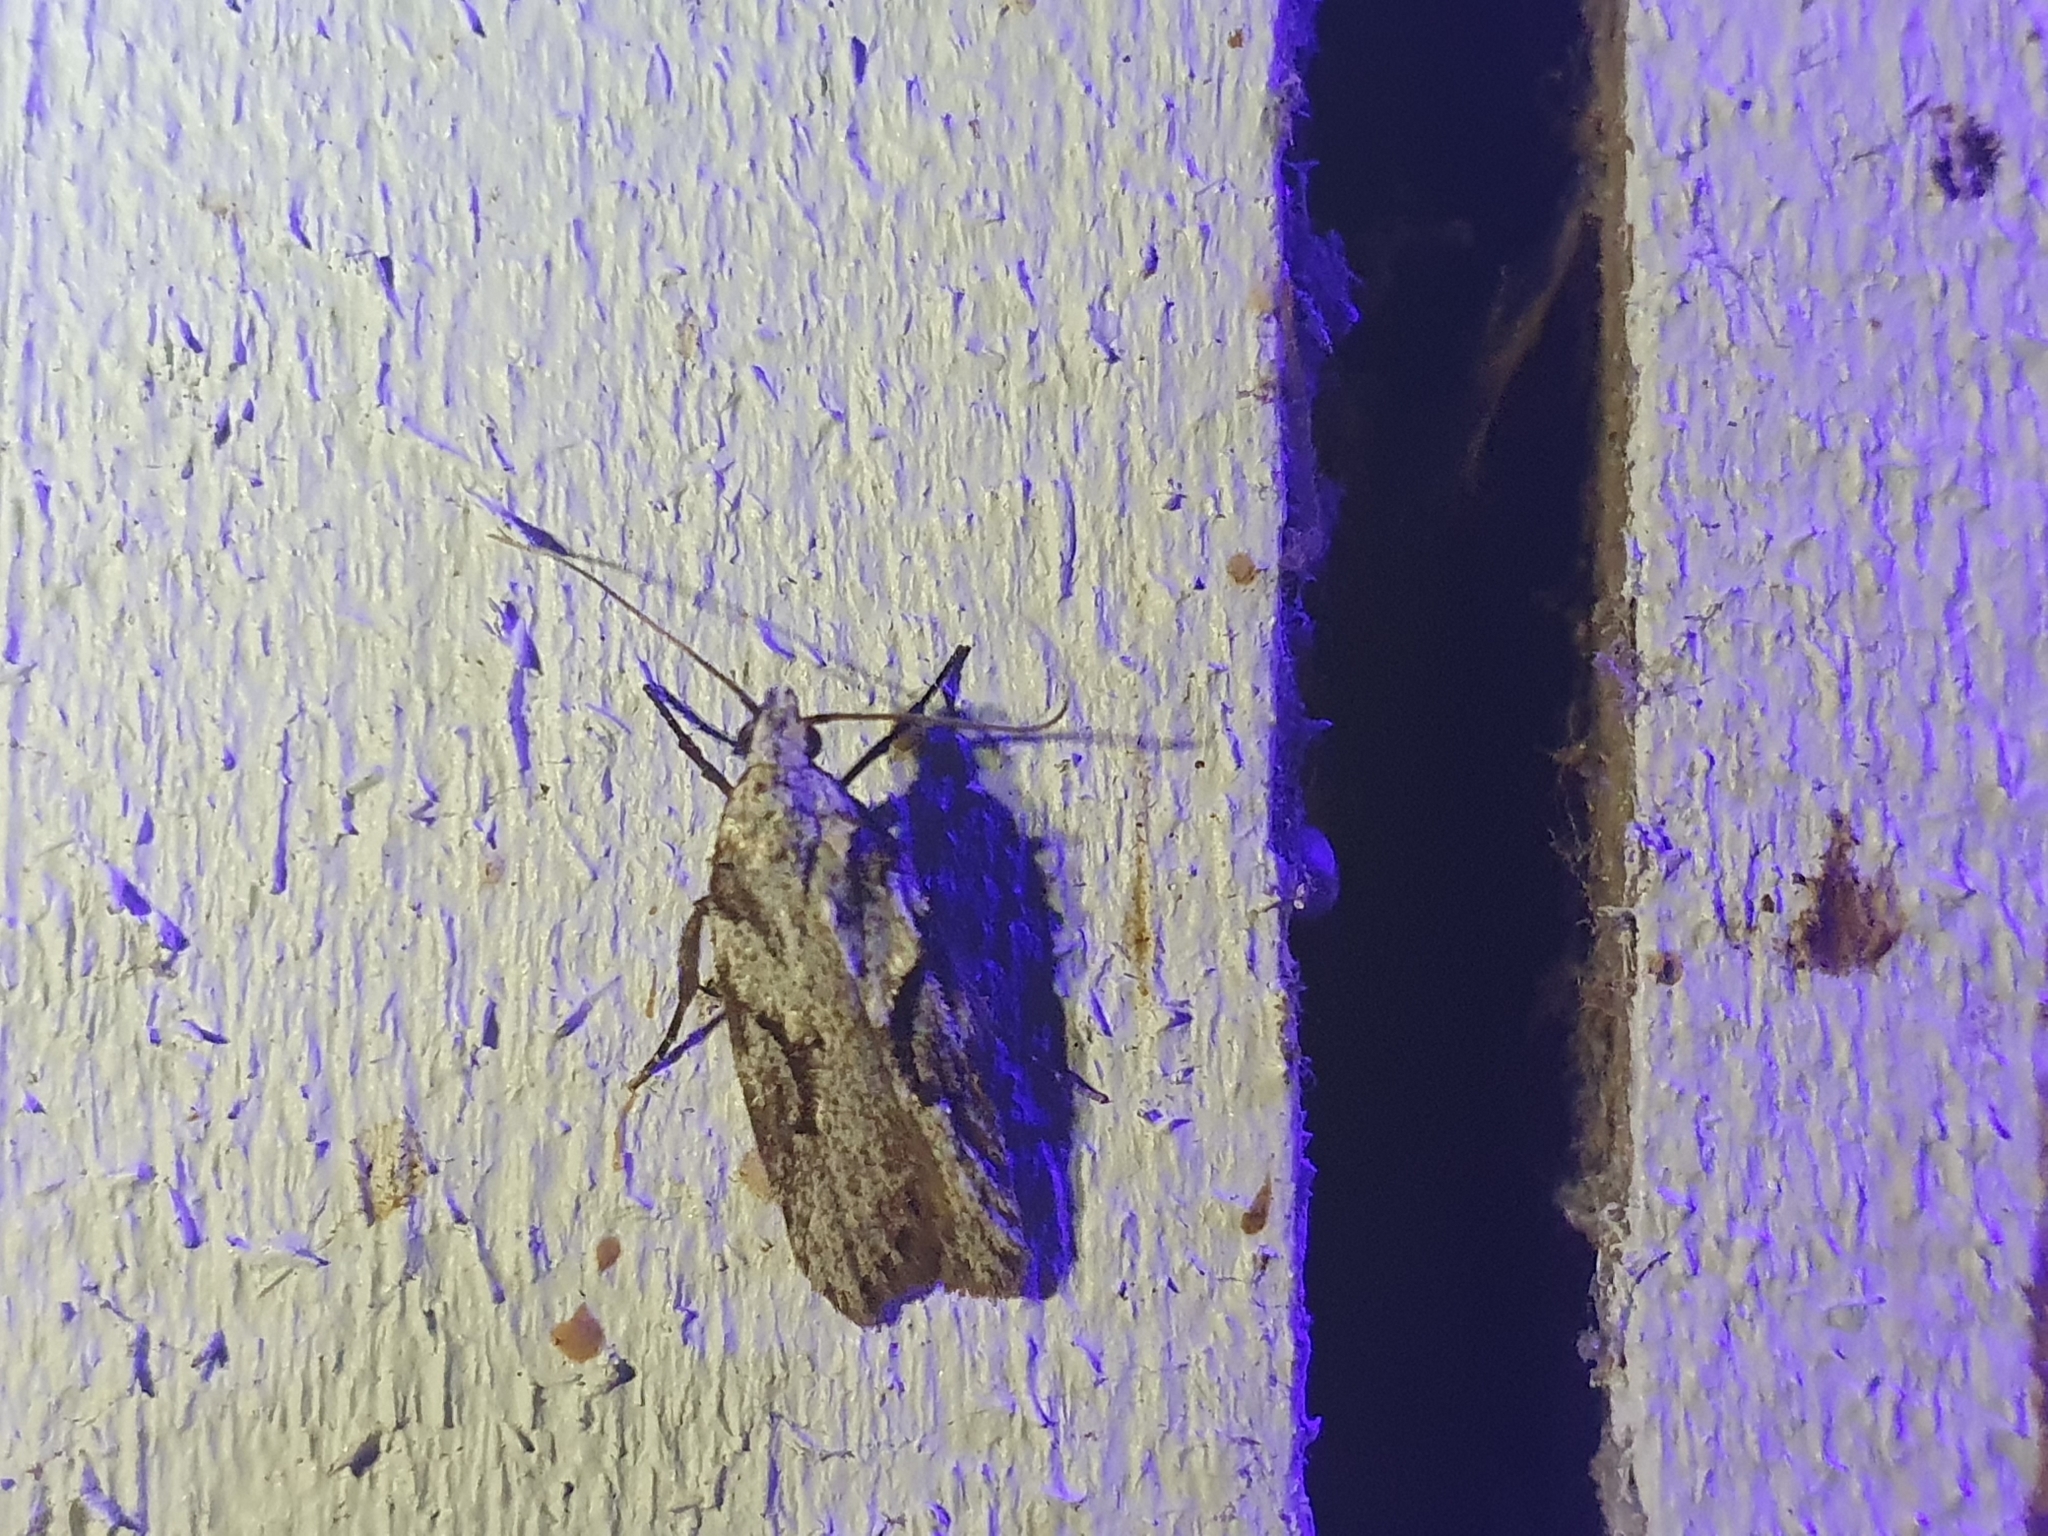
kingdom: Animalia
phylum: Arthropoda
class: Insecta
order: Lepidoptera
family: Oecophoridae
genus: Izatha
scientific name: Izatha mesoschista
